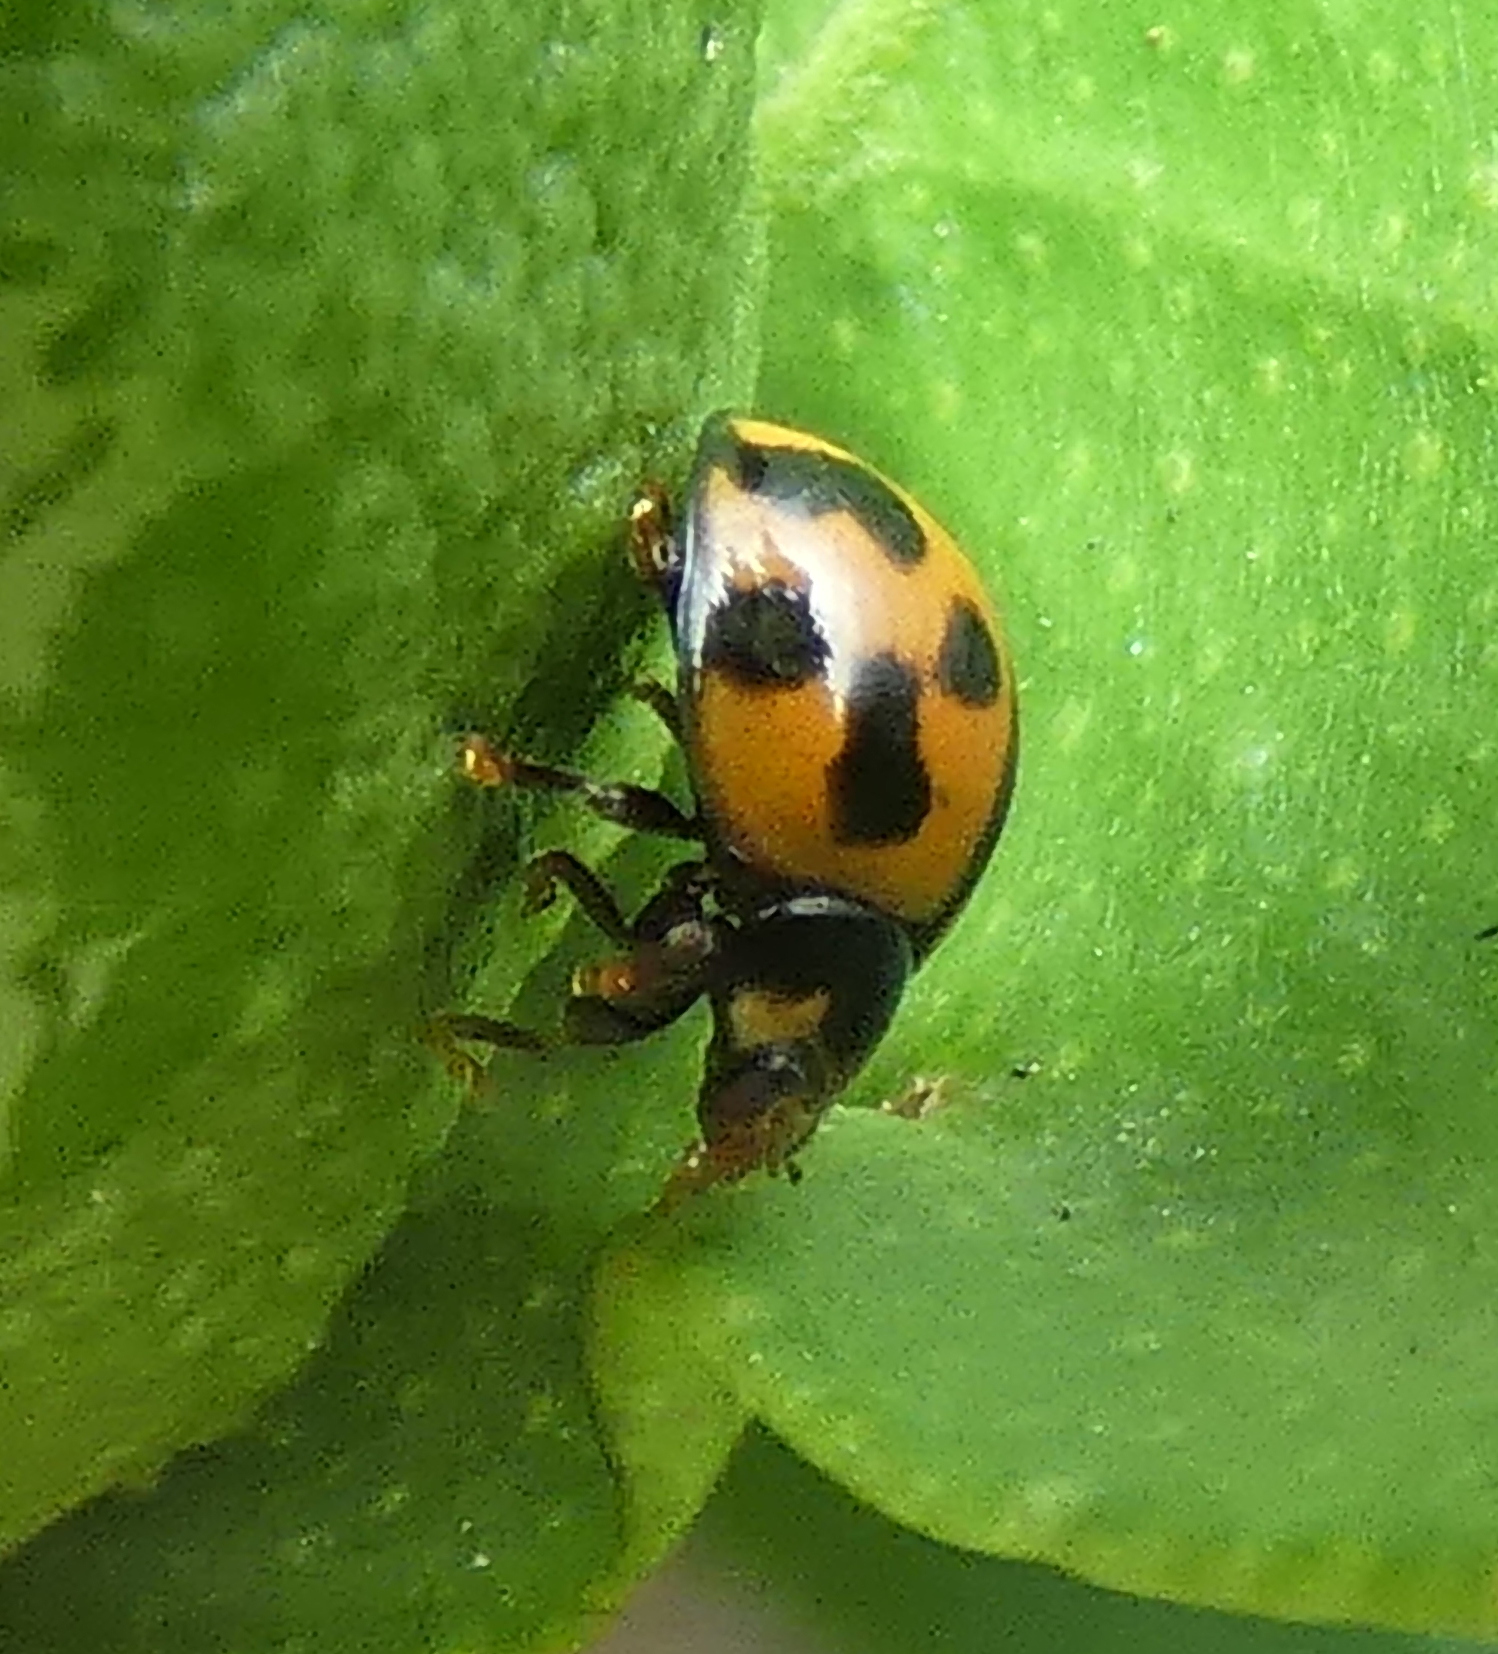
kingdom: Animalia
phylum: Arthropoda
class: Insecta
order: Coleoptera
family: Coccinellidae
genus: Coelophora
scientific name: Coelophora inaequalis
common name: Common australian lady beetle
